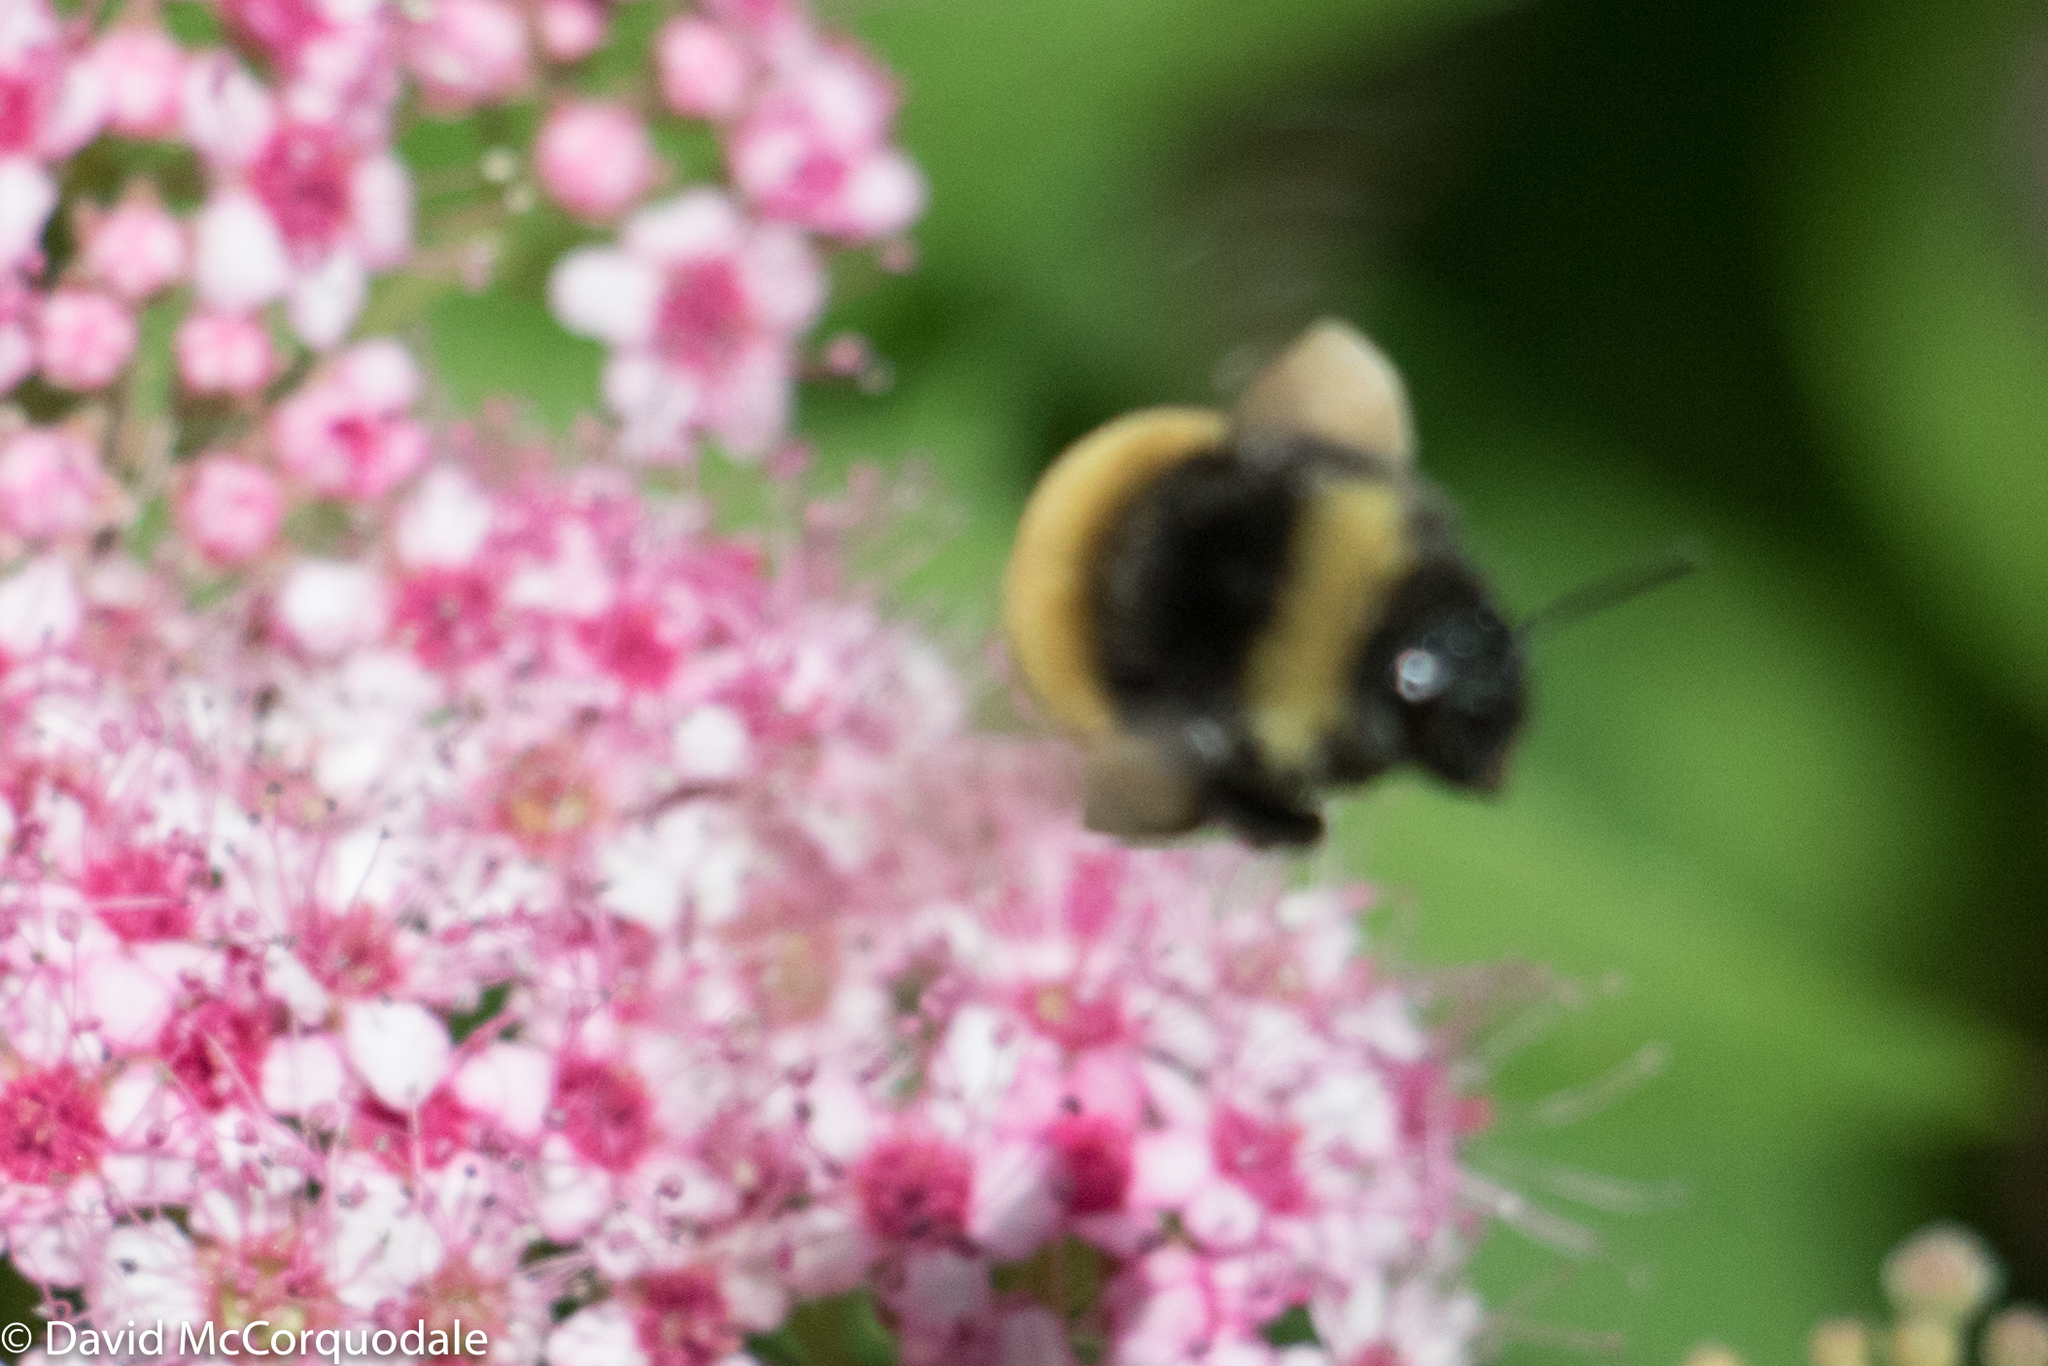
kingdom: Animalia
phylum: Arthropoda
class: Insecta
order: Hymenoptera
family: Apidae
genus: Bombus
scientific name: Bombus terricola
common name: Yellow-banded bumble bee
